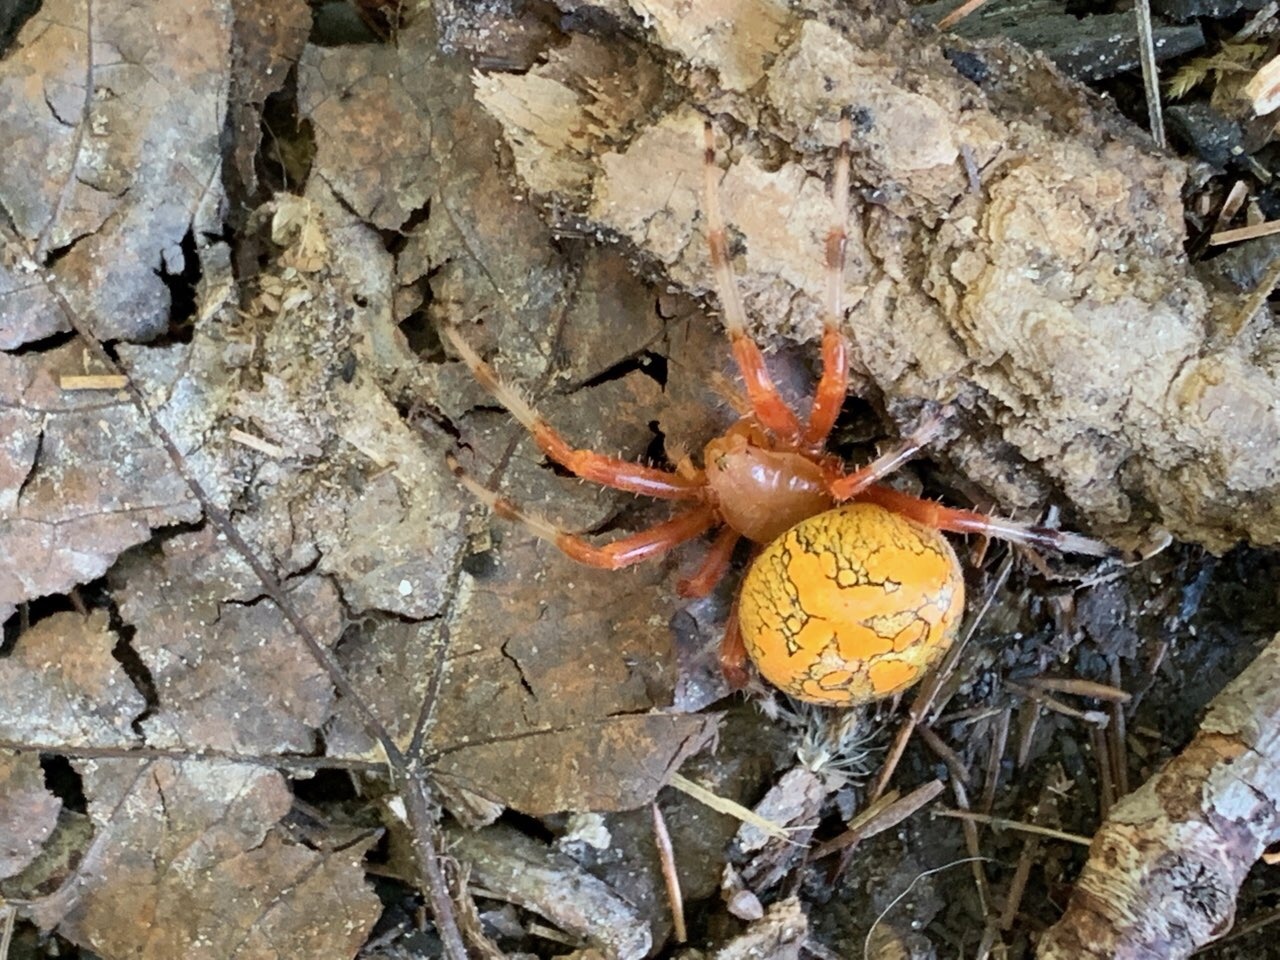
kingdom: Animalia
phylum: Arthropoda
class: Arachnida
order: Araneae
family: Araneidae
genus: Araneus
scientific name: Araneus marmoreus
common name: Marbled orbweaver
